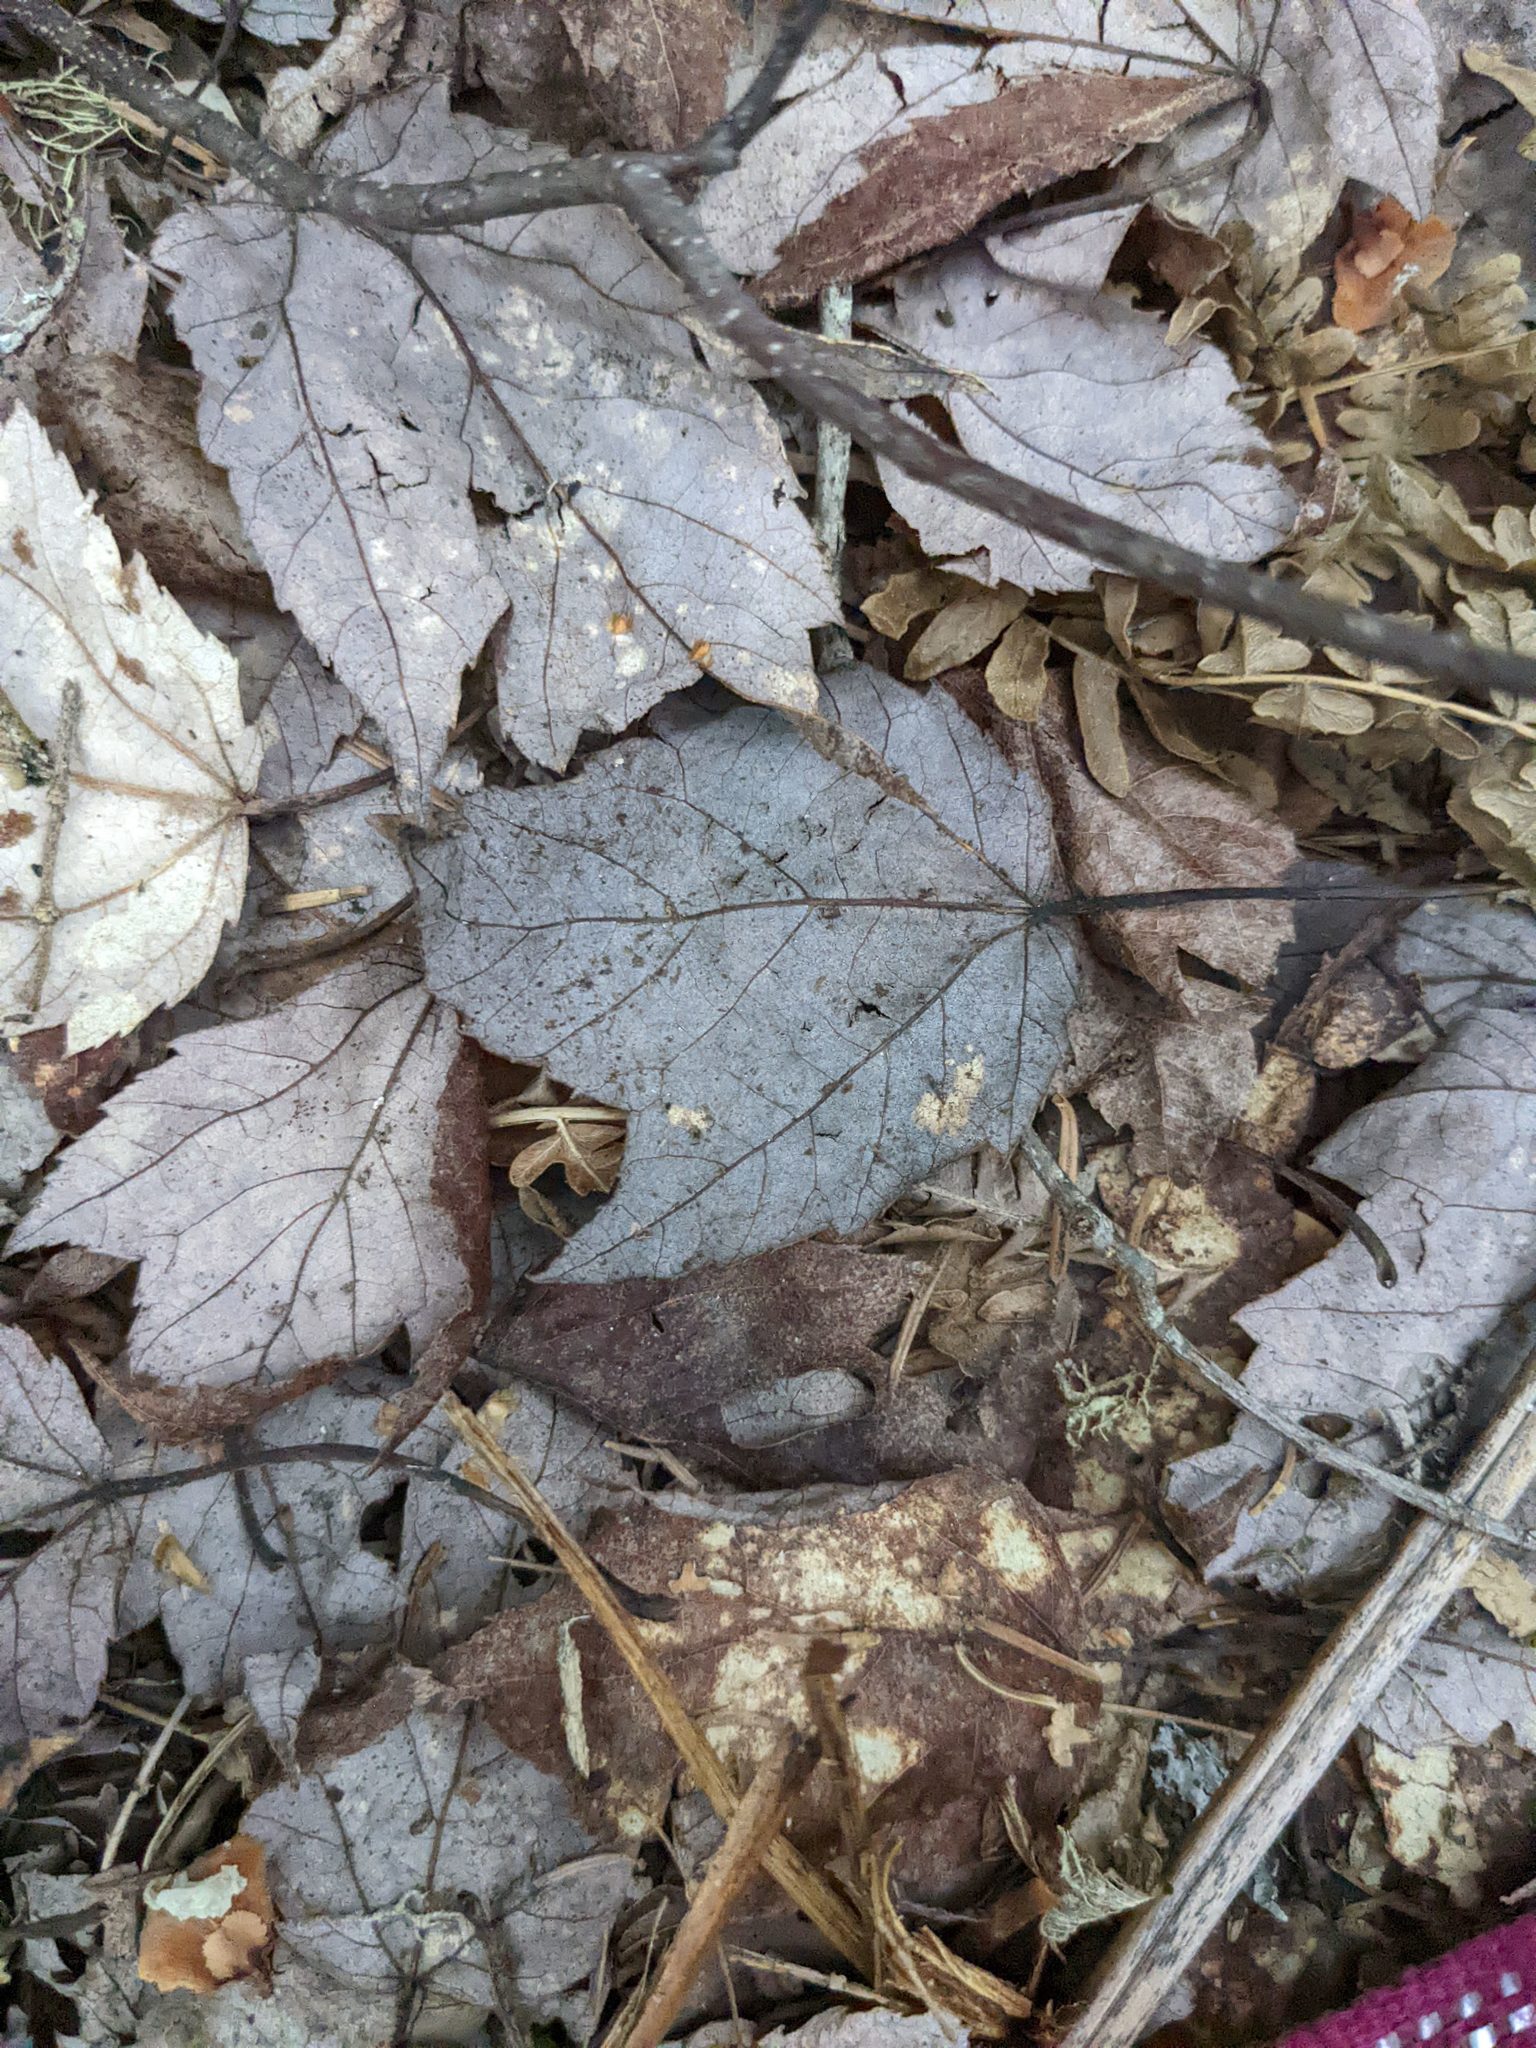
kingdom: Plantae
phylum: Tracheophyta
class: Magnoliopsida
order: Sapindales
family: Sapindaceae
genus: Acer
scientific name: Acer rubrum
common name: Red maple
